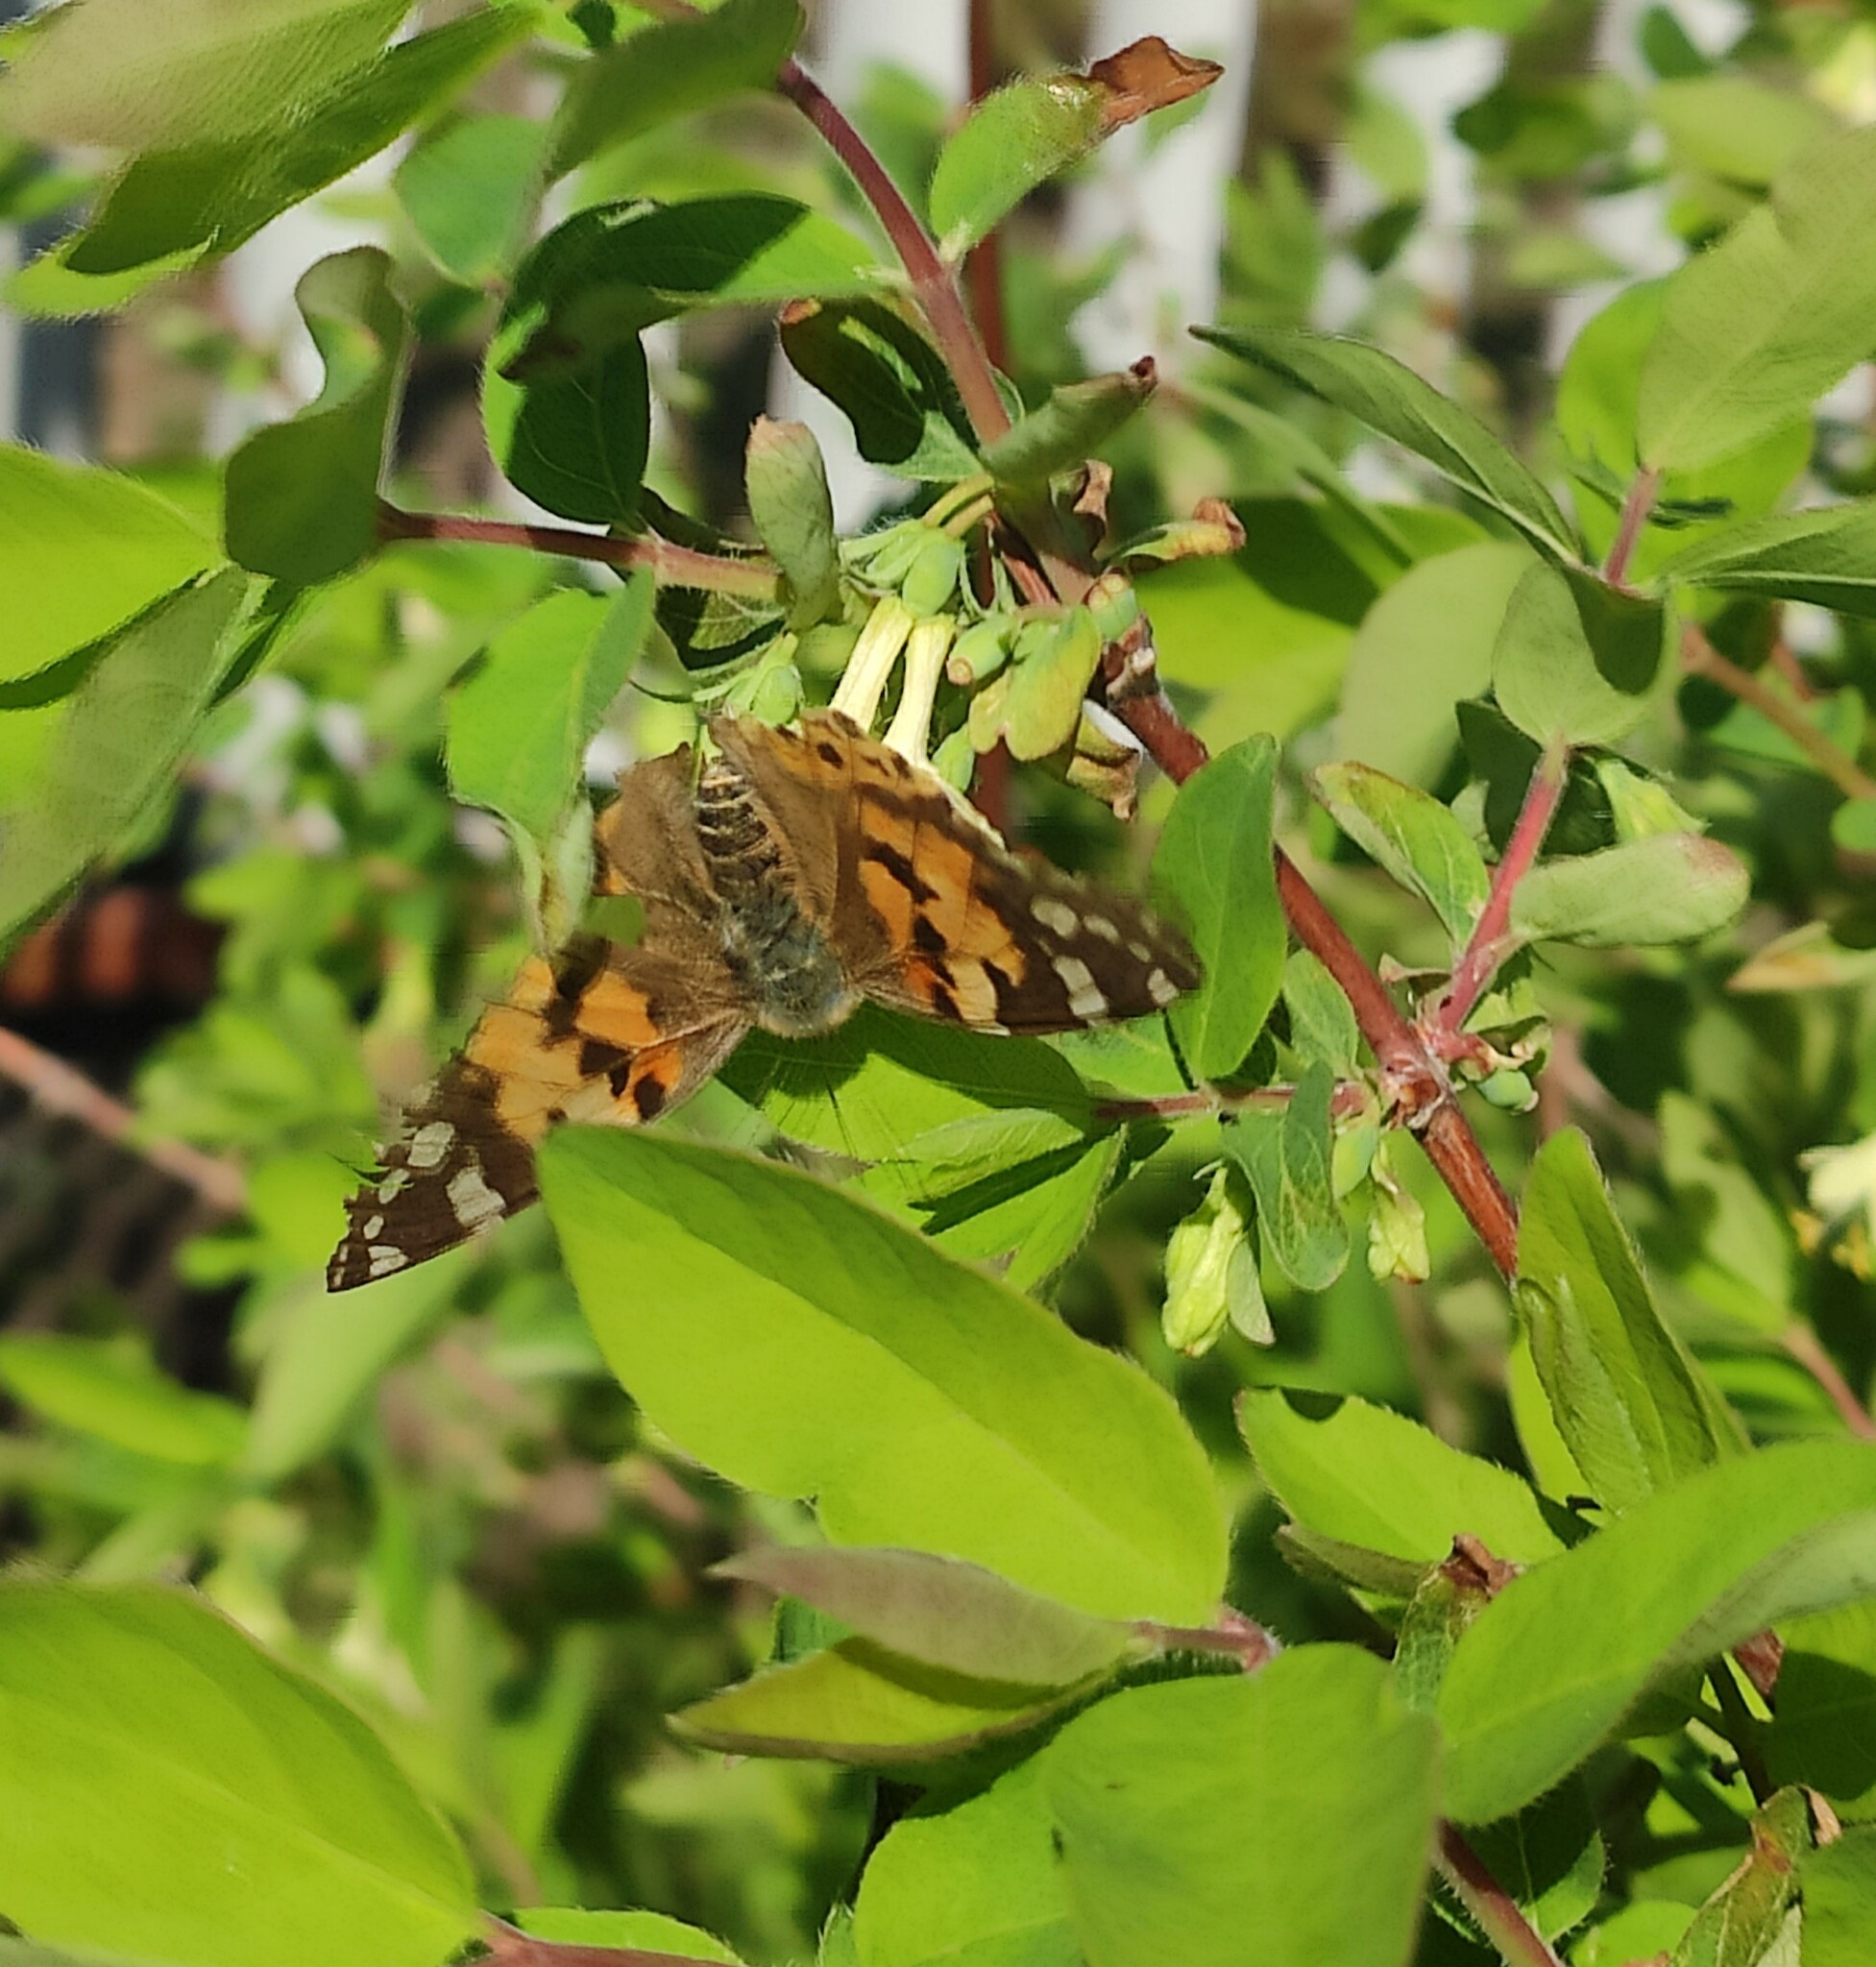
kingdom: Animalia
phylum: Arthropoda
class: Insecta
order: Lepidoptera
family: Nymphalidae
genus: Vanessa
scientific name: Vanessa cardui
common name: Painted lady
